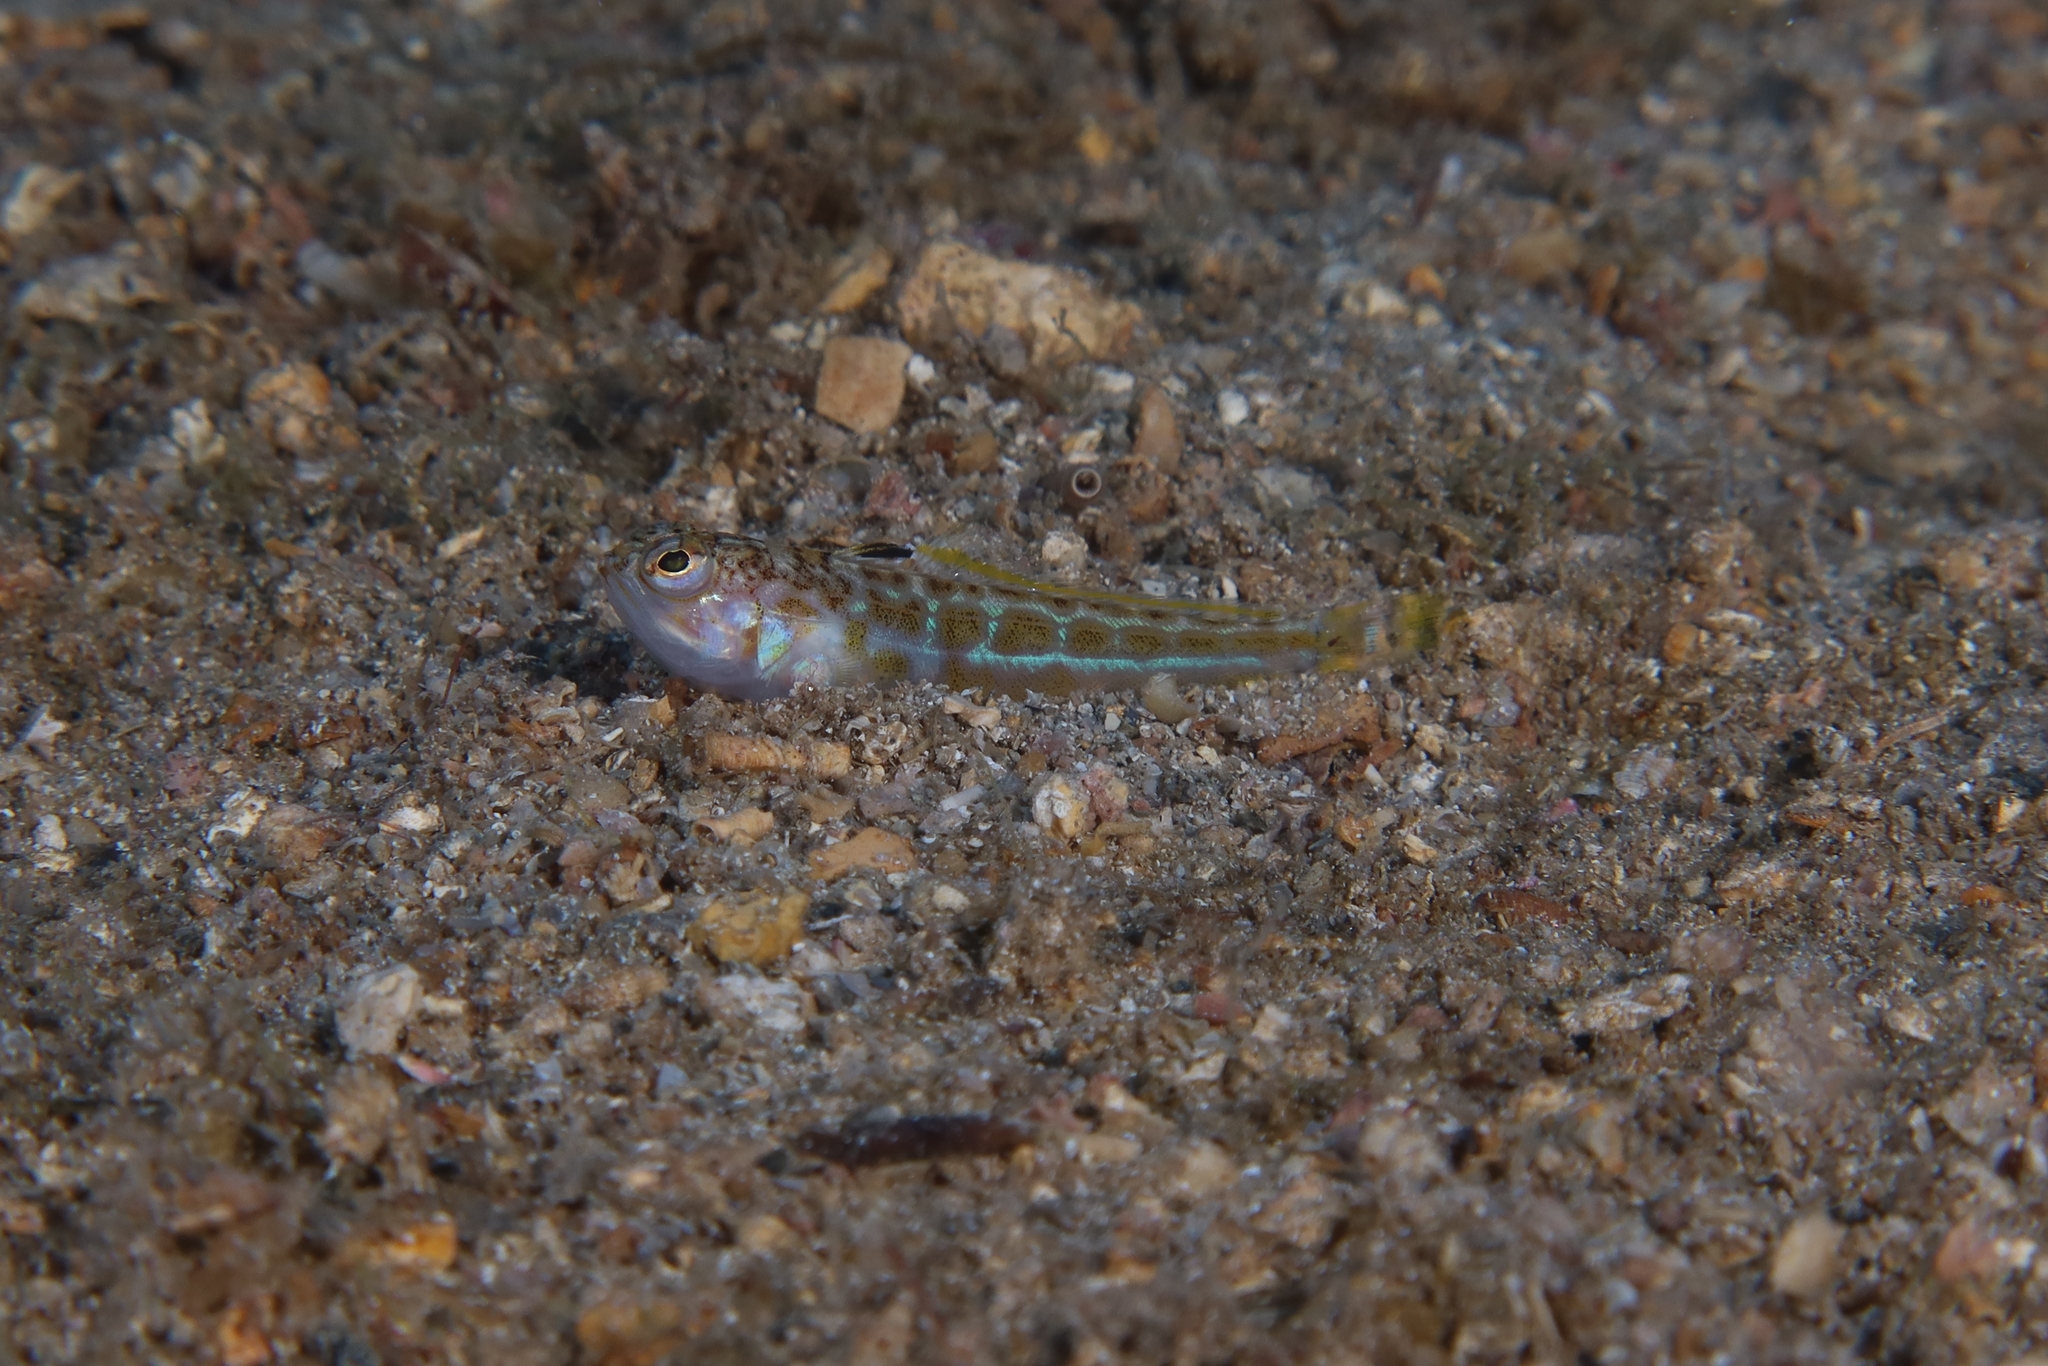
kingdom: Animalia
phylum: Chordata
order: Perciformes
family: Trachinidae
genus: Trachinus
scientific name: Trachinus draco
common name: Greater weever
